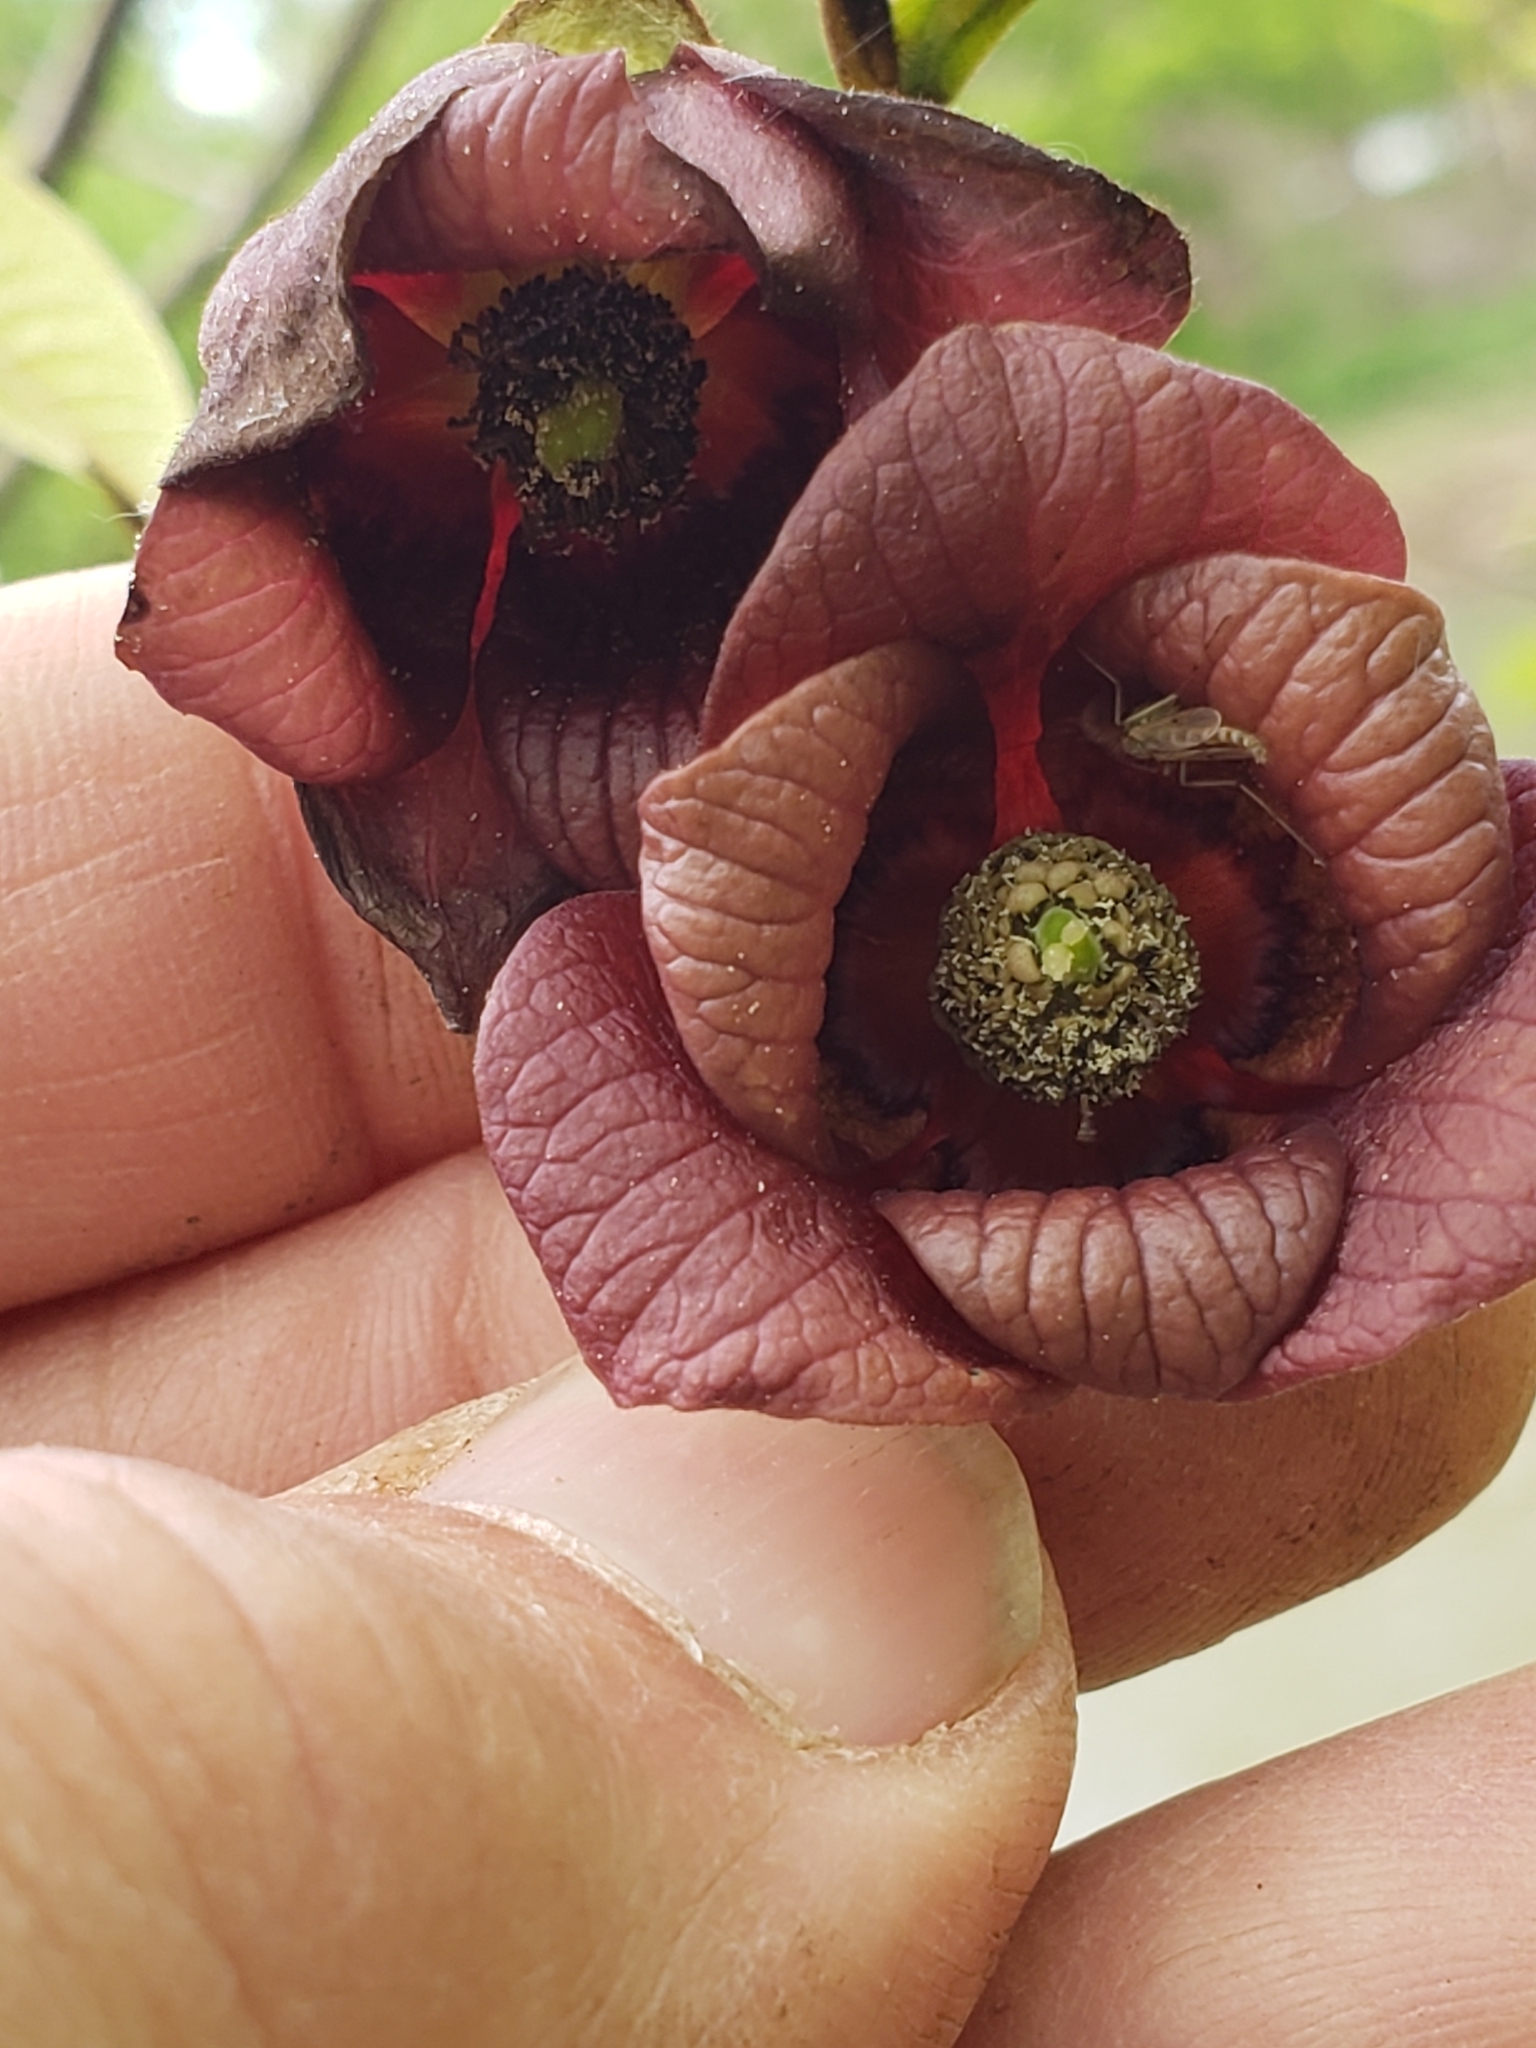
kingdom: Plantae
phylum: Tracheophyta
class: Magnoliopsida
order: Magnoliales
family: Annonaceae
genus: Asimina
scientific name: Asimina triloba
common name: Dog-banana
